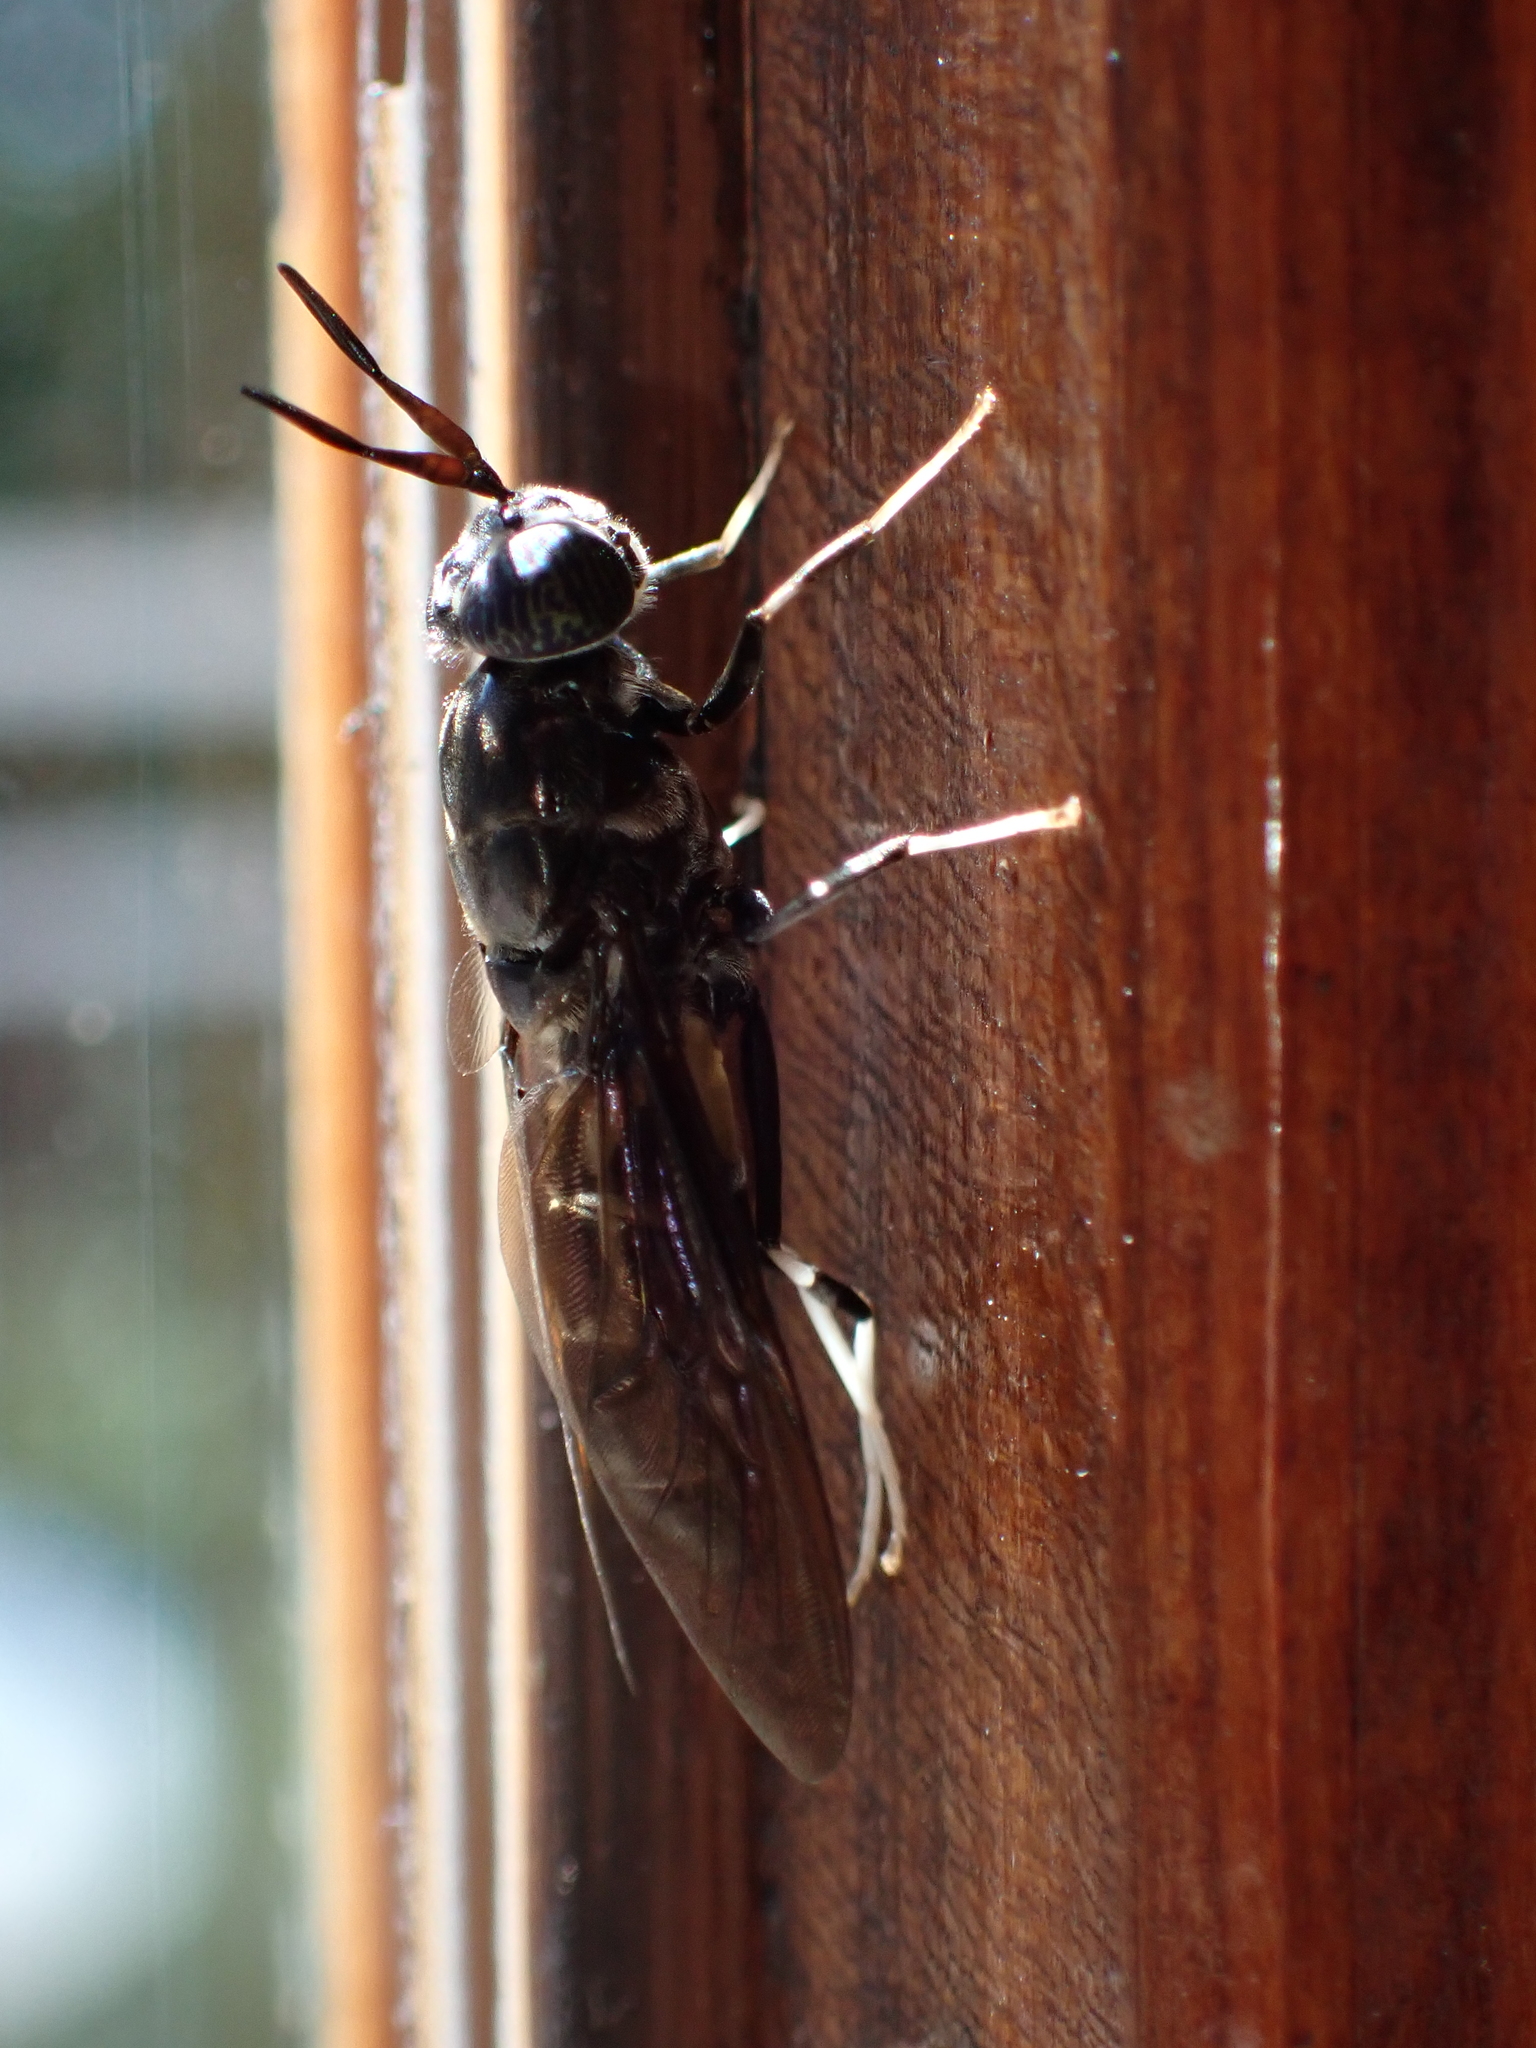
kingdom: Animalia
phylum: Arthropoda
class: Insecta
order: Diptera
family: Stratiomyidae
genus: Hermetia
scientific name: Hermetia illucens
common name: Black soldier fly
